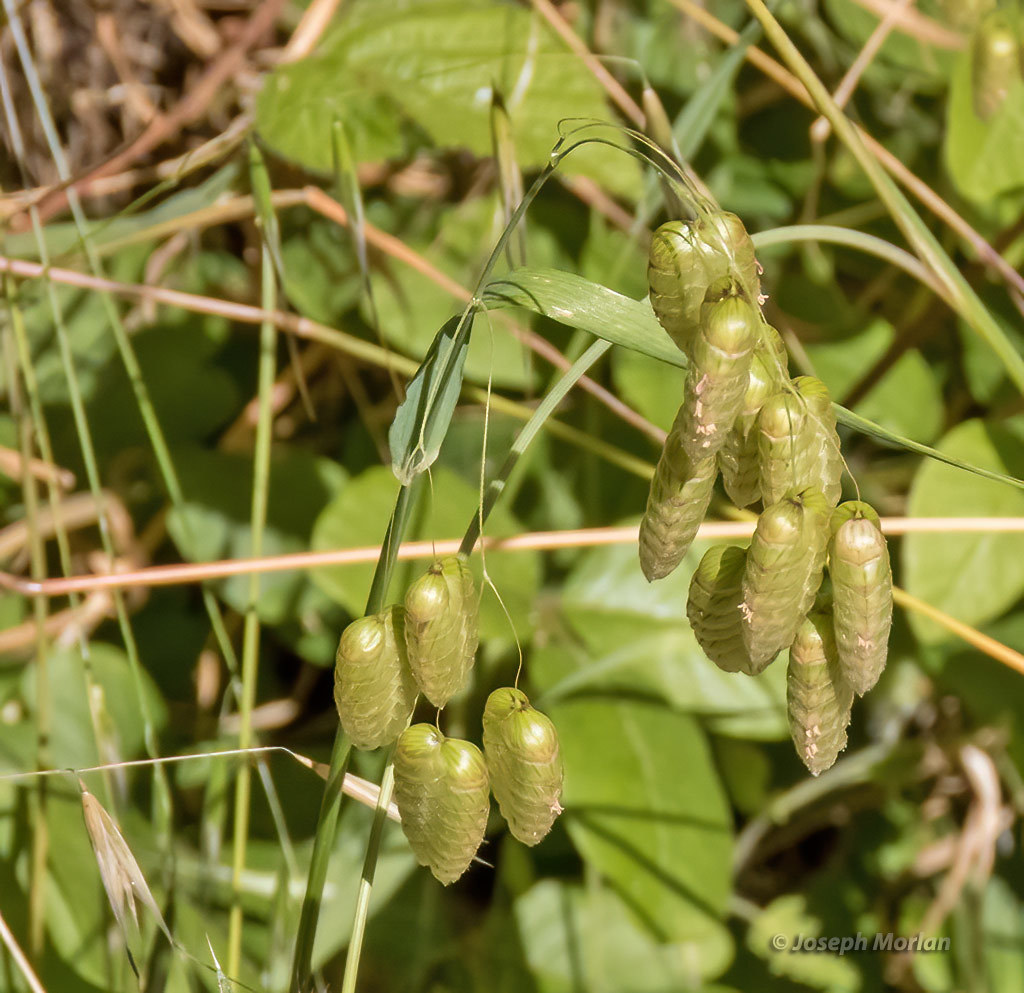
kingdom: Plantae
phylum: Tracheophyta
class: Liliopsida
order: Poales
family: Poaceae
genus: Briza
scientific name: Briza maxima
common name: Big quakinggrass
